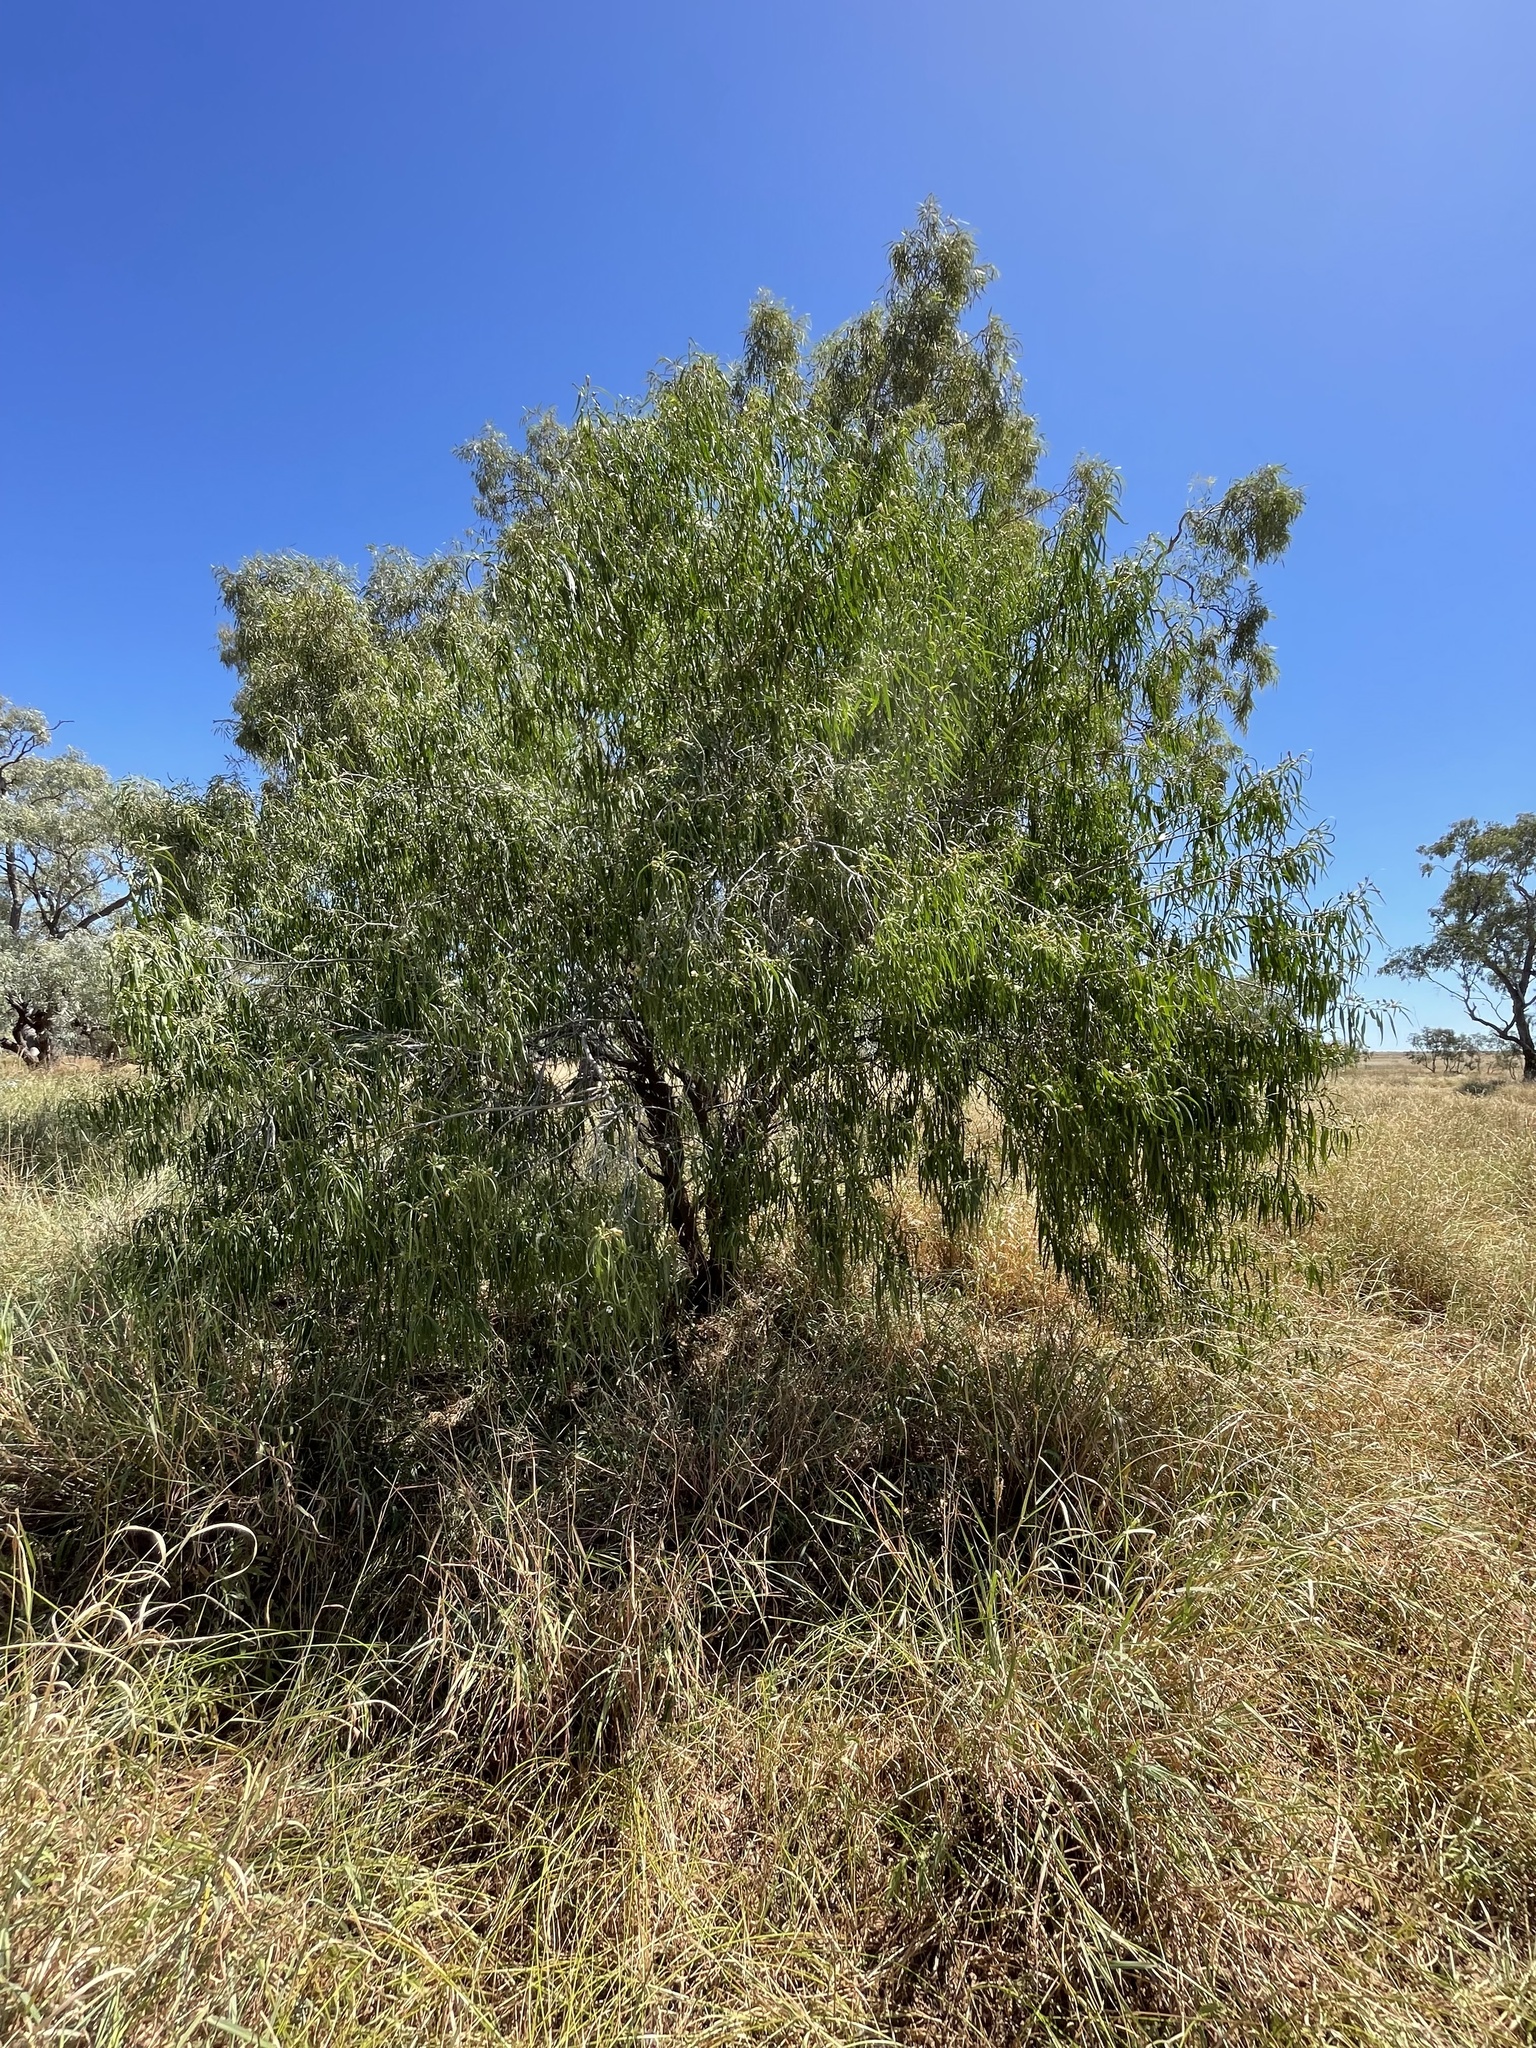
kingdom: Plantae
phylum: Tracheophyta
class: Magnoliopsida
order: Lamiales
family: Scrophulariaceae
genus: Eremophila
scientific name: Eremophila bignoniiflora
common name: Bignonia emu-bush
